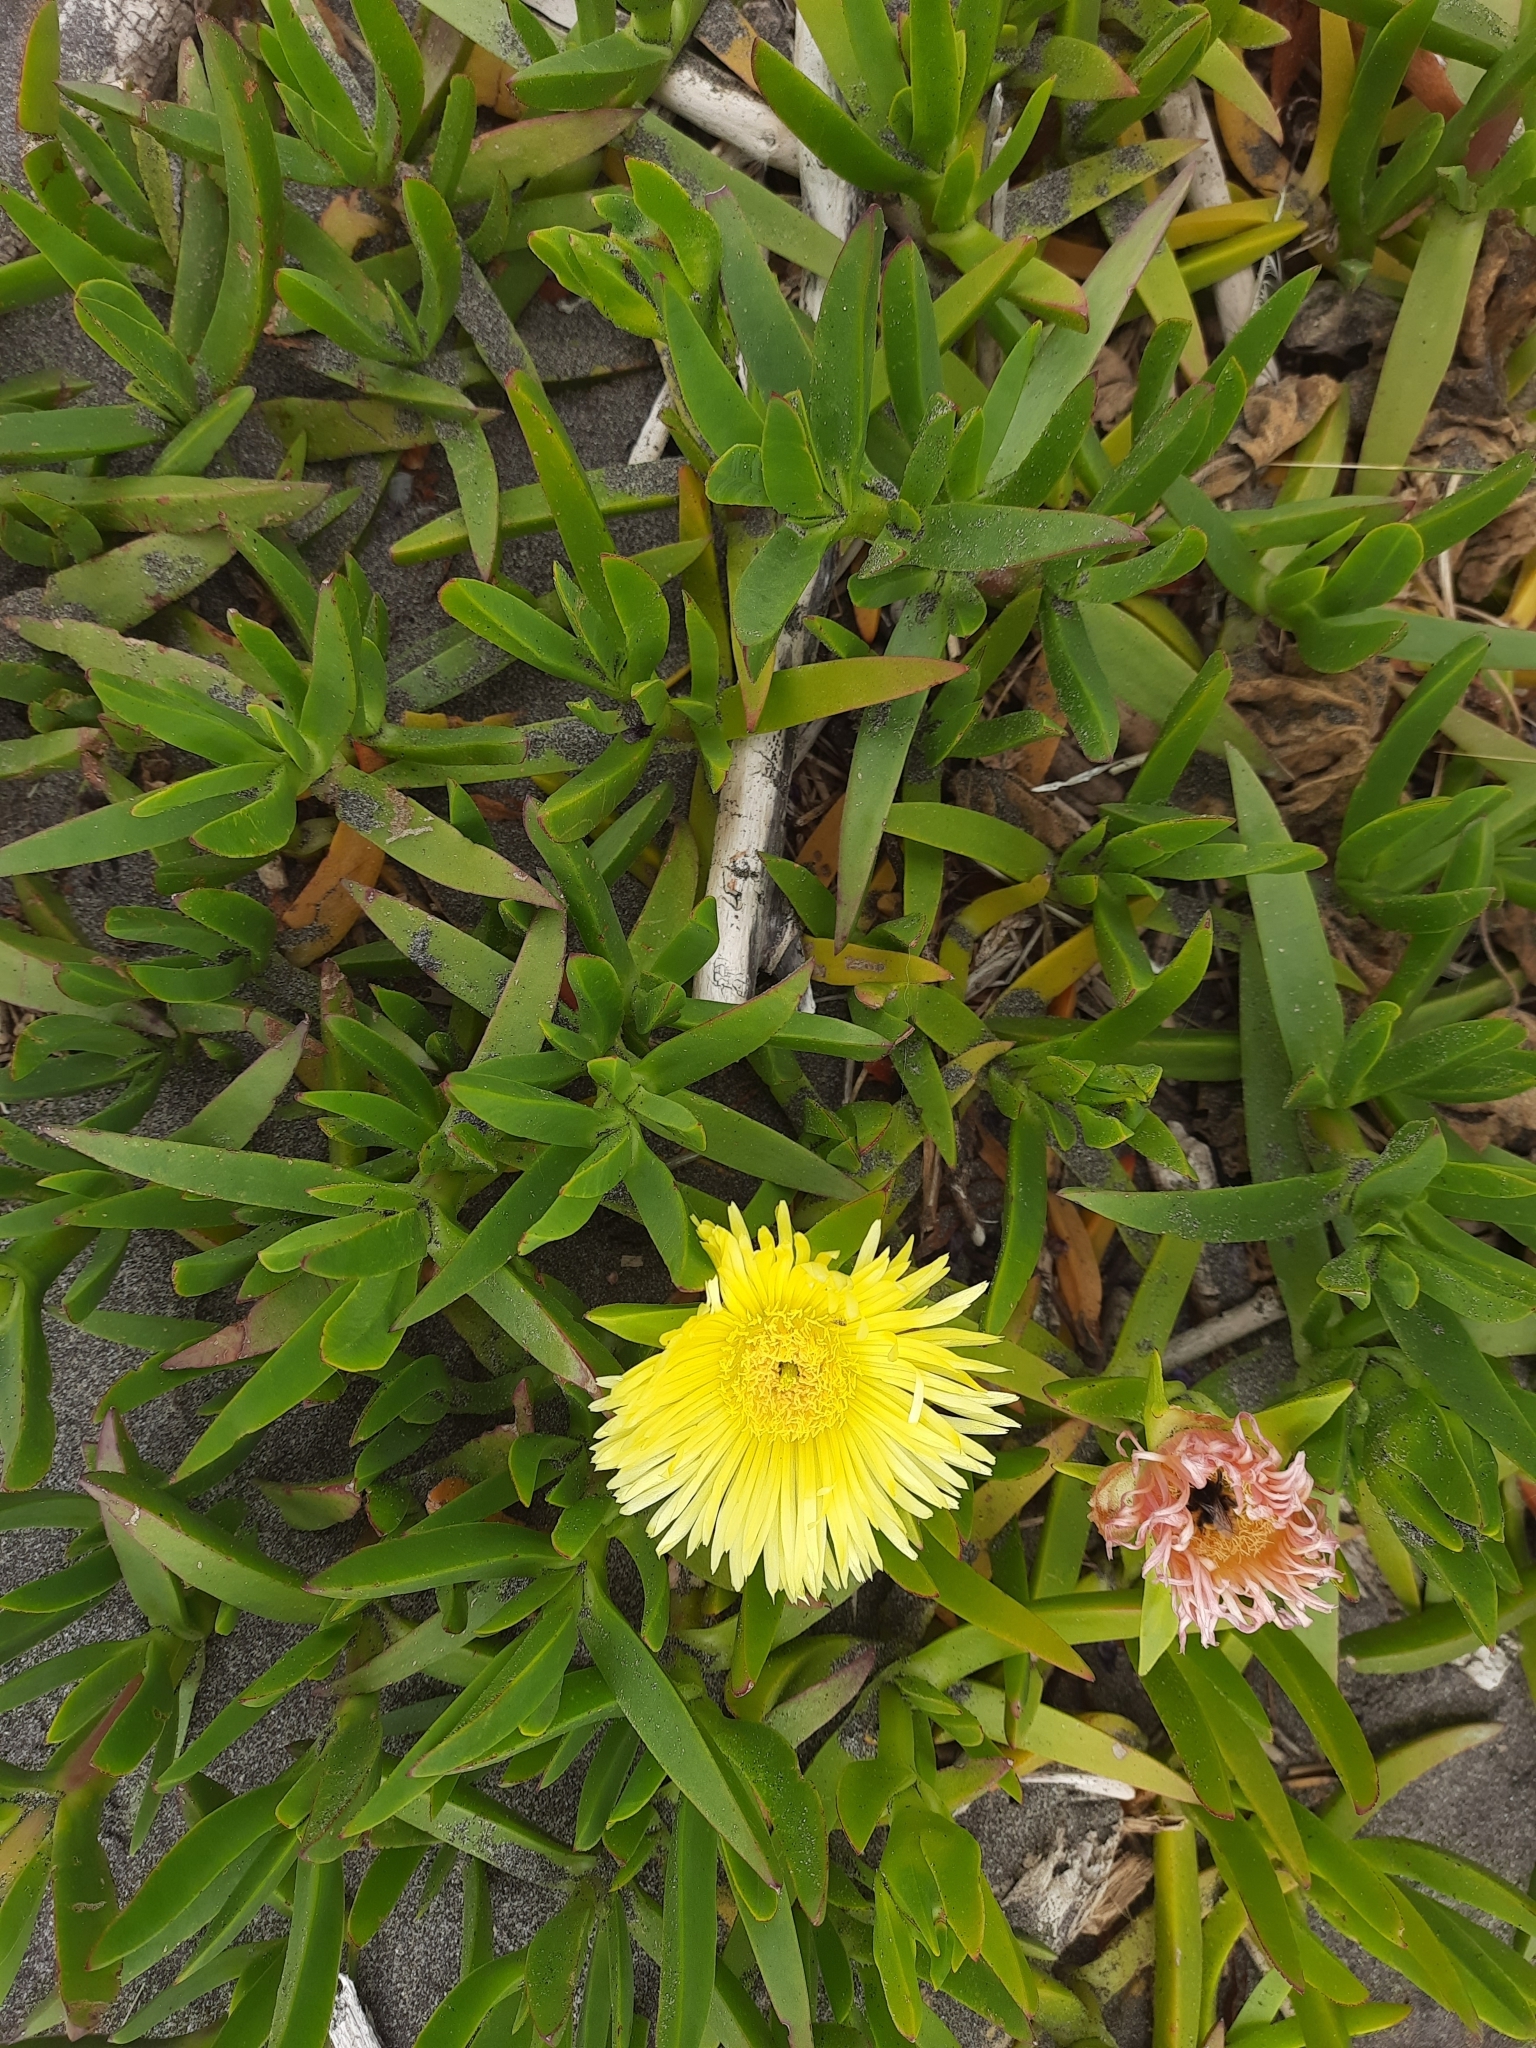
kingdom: Plantae
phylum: Tracheophyta
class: Magnoliopsida
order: Caryophyllales
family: Aizoaceae
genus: Carpobrotus
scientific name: Carpobrotus edulis
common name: Hottentot-fig
